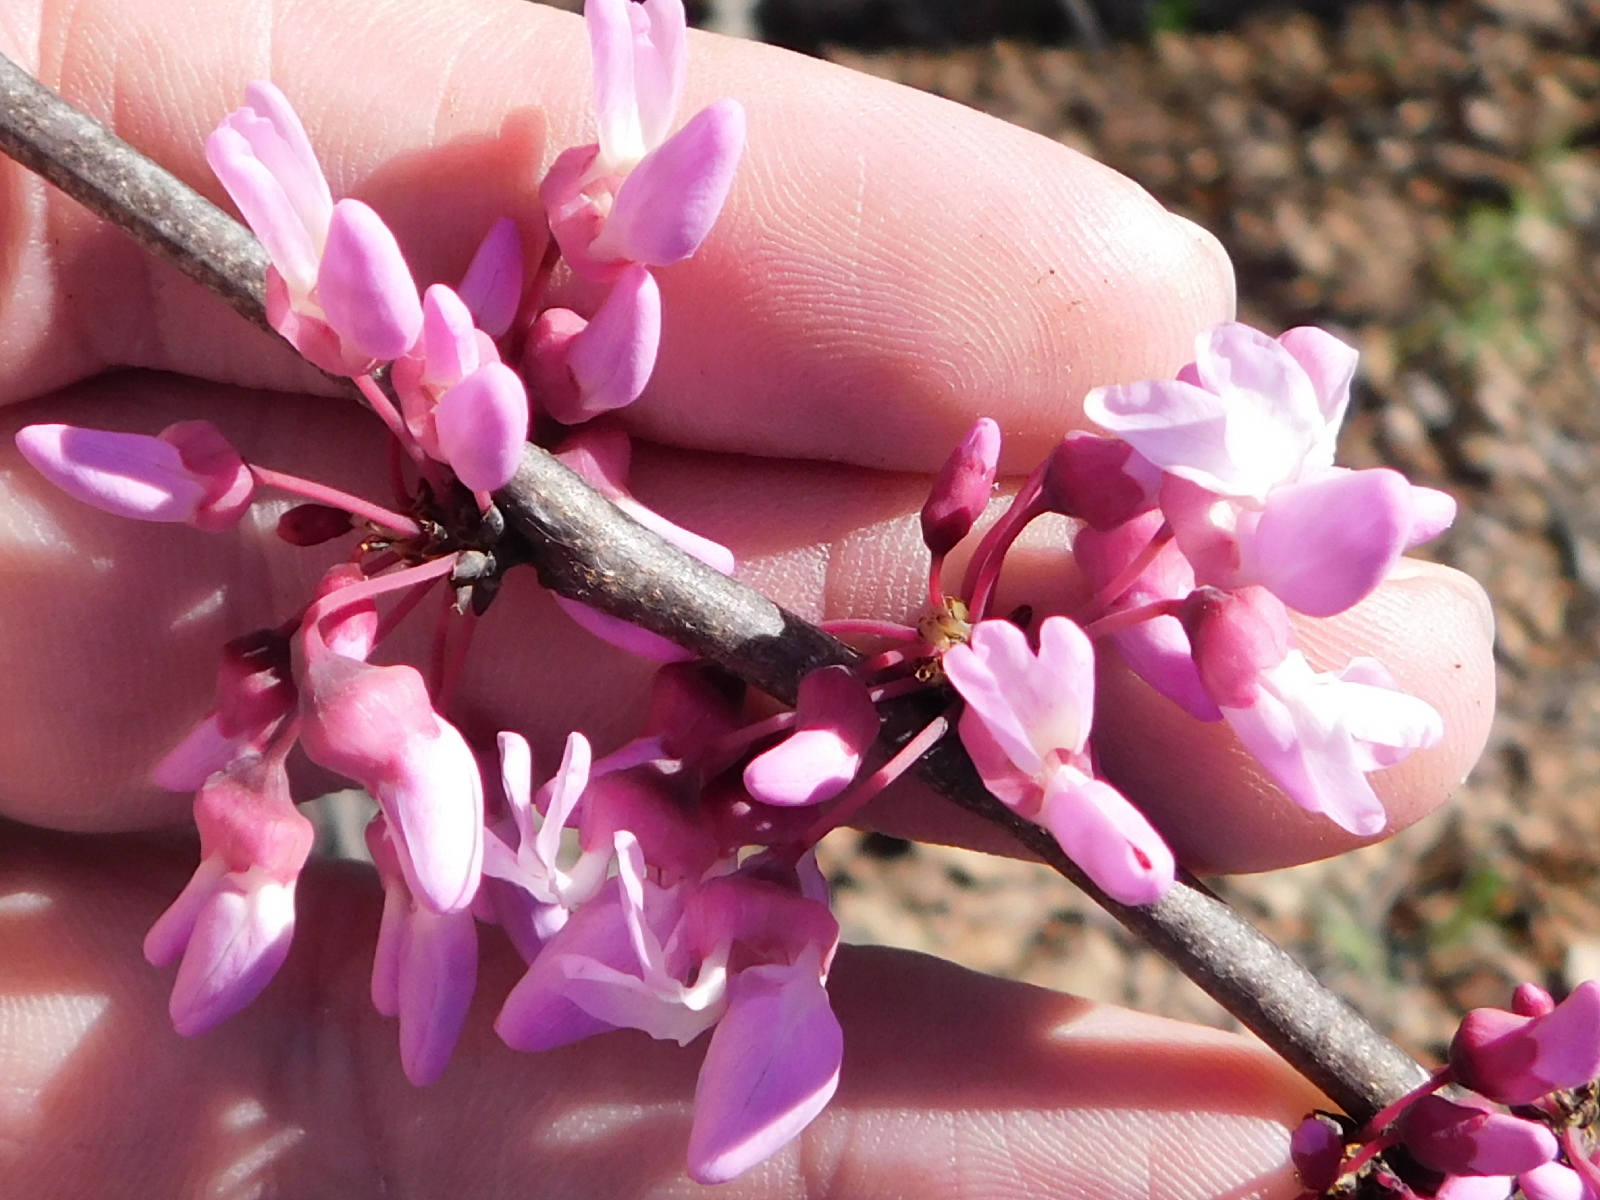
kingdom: Plantae
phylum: Tracheophyta
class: Magnoliopsida
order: Fabales
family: Fabaceae
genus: Cercis
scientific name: Cercis canadensis
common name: Eastern redbud
